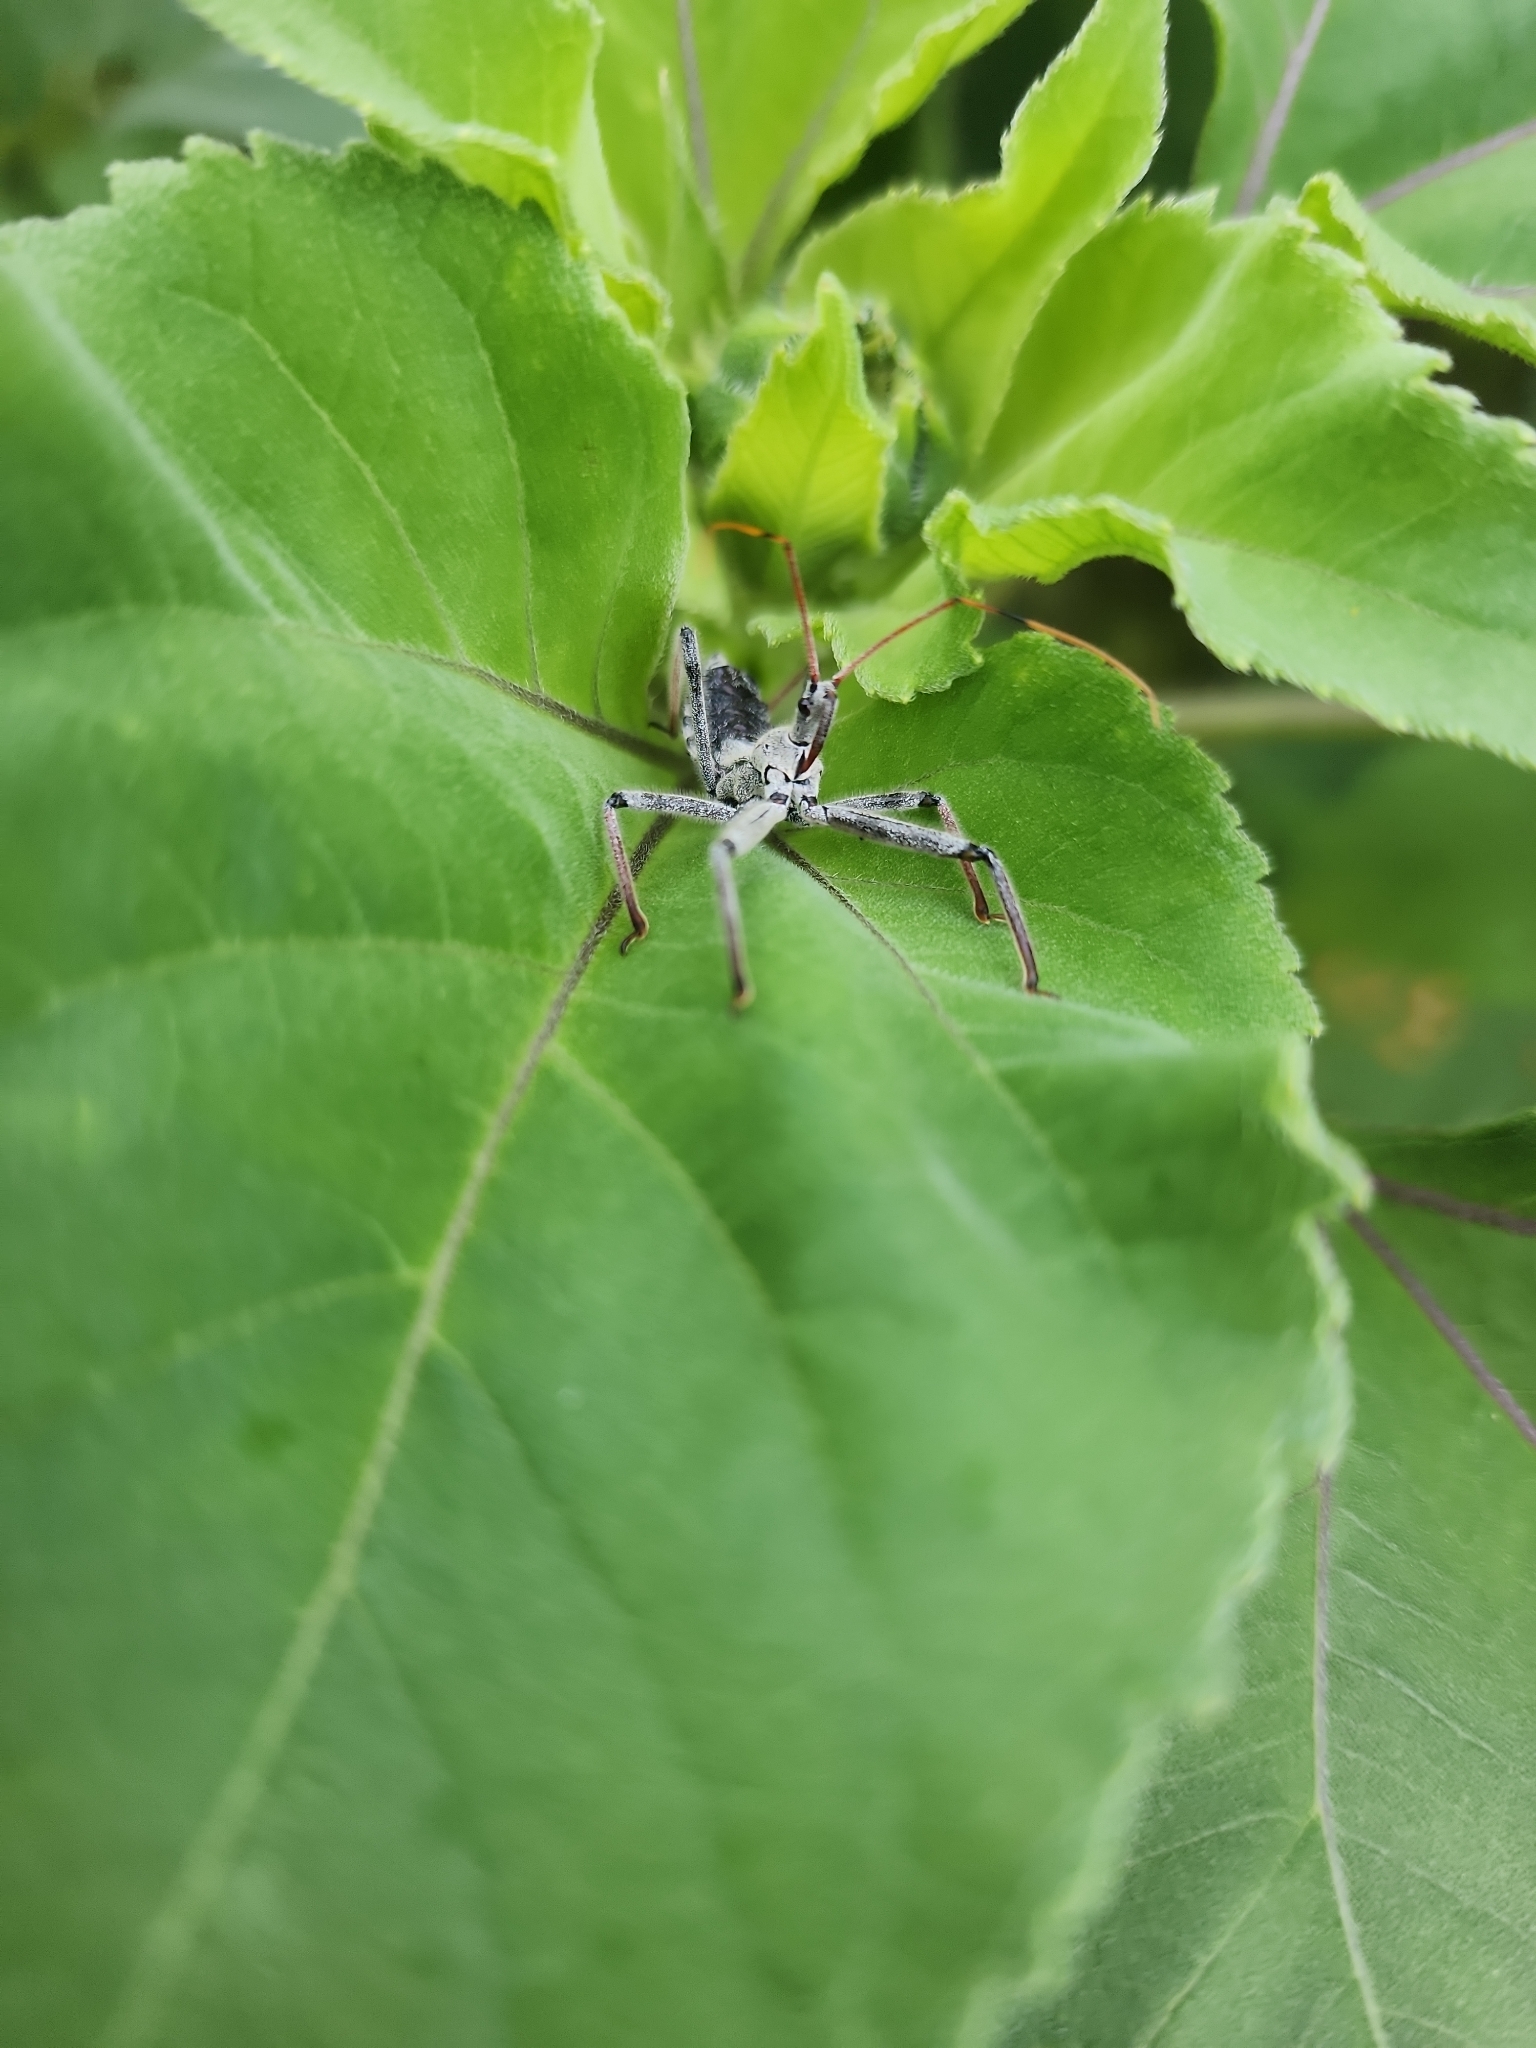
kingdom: Animalia
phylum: Arthropoda
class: Insecta
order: Hemiptera
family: Reduviidae
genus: Arilus
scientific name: Arilus cristatus
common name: North american wheel bug
